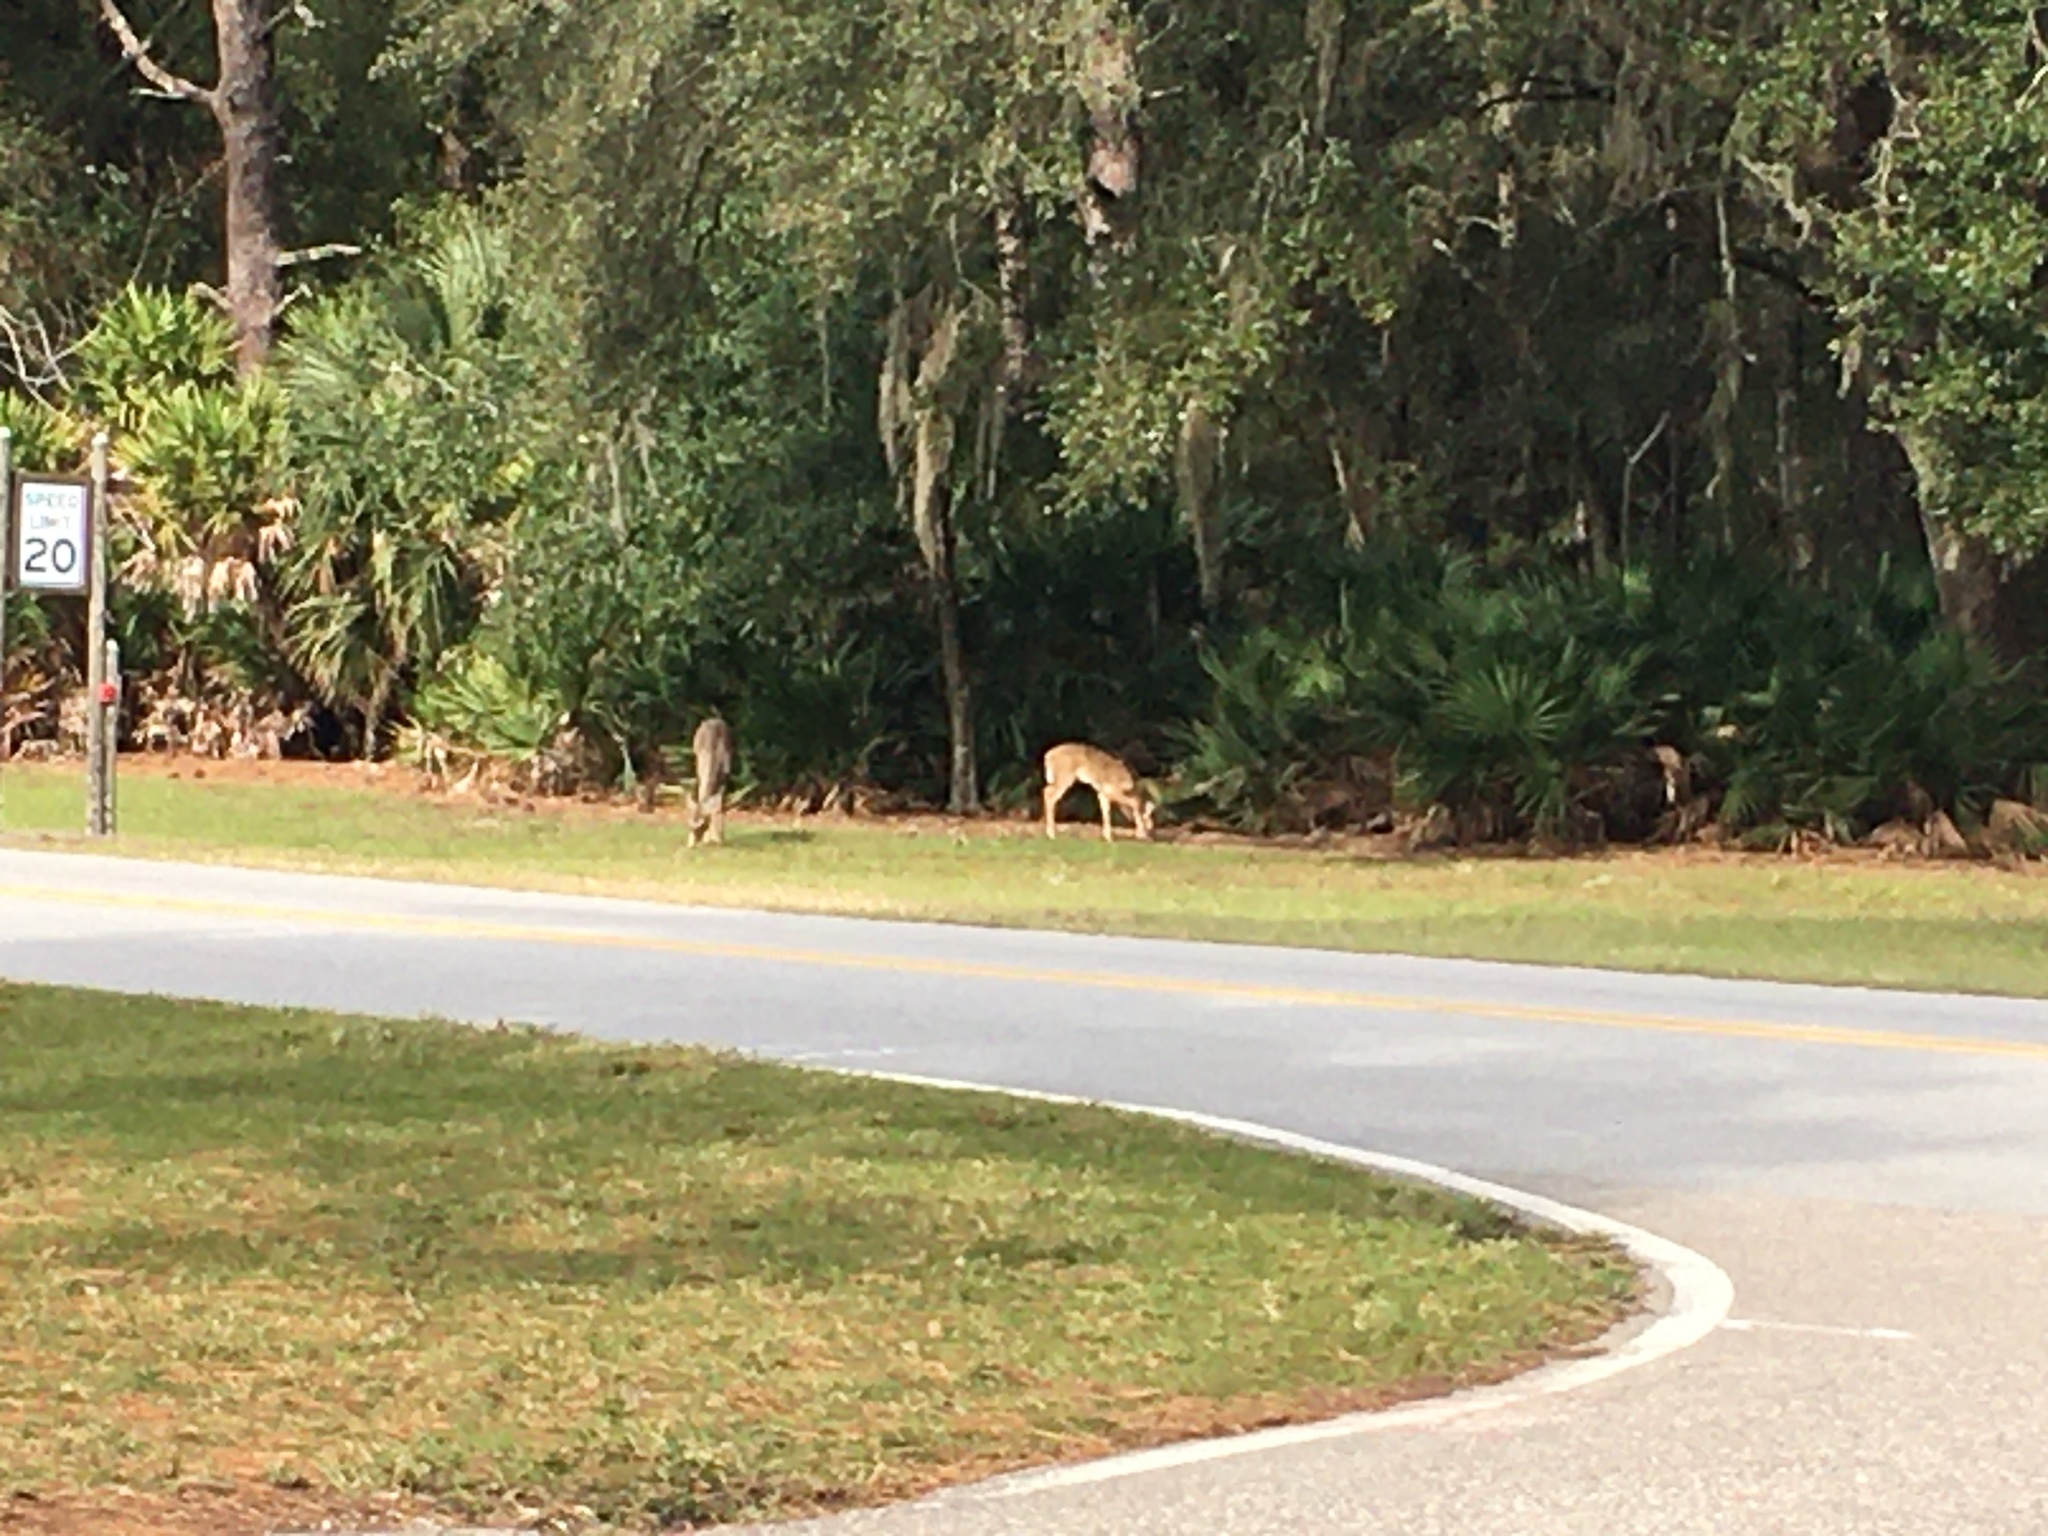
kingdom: Animalia
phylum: Chordata
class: Mammalia
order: Artiodactyla
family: Cervidae
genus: Odocoileus
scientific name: Odocoileus virginianus
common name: White-tailed deer
